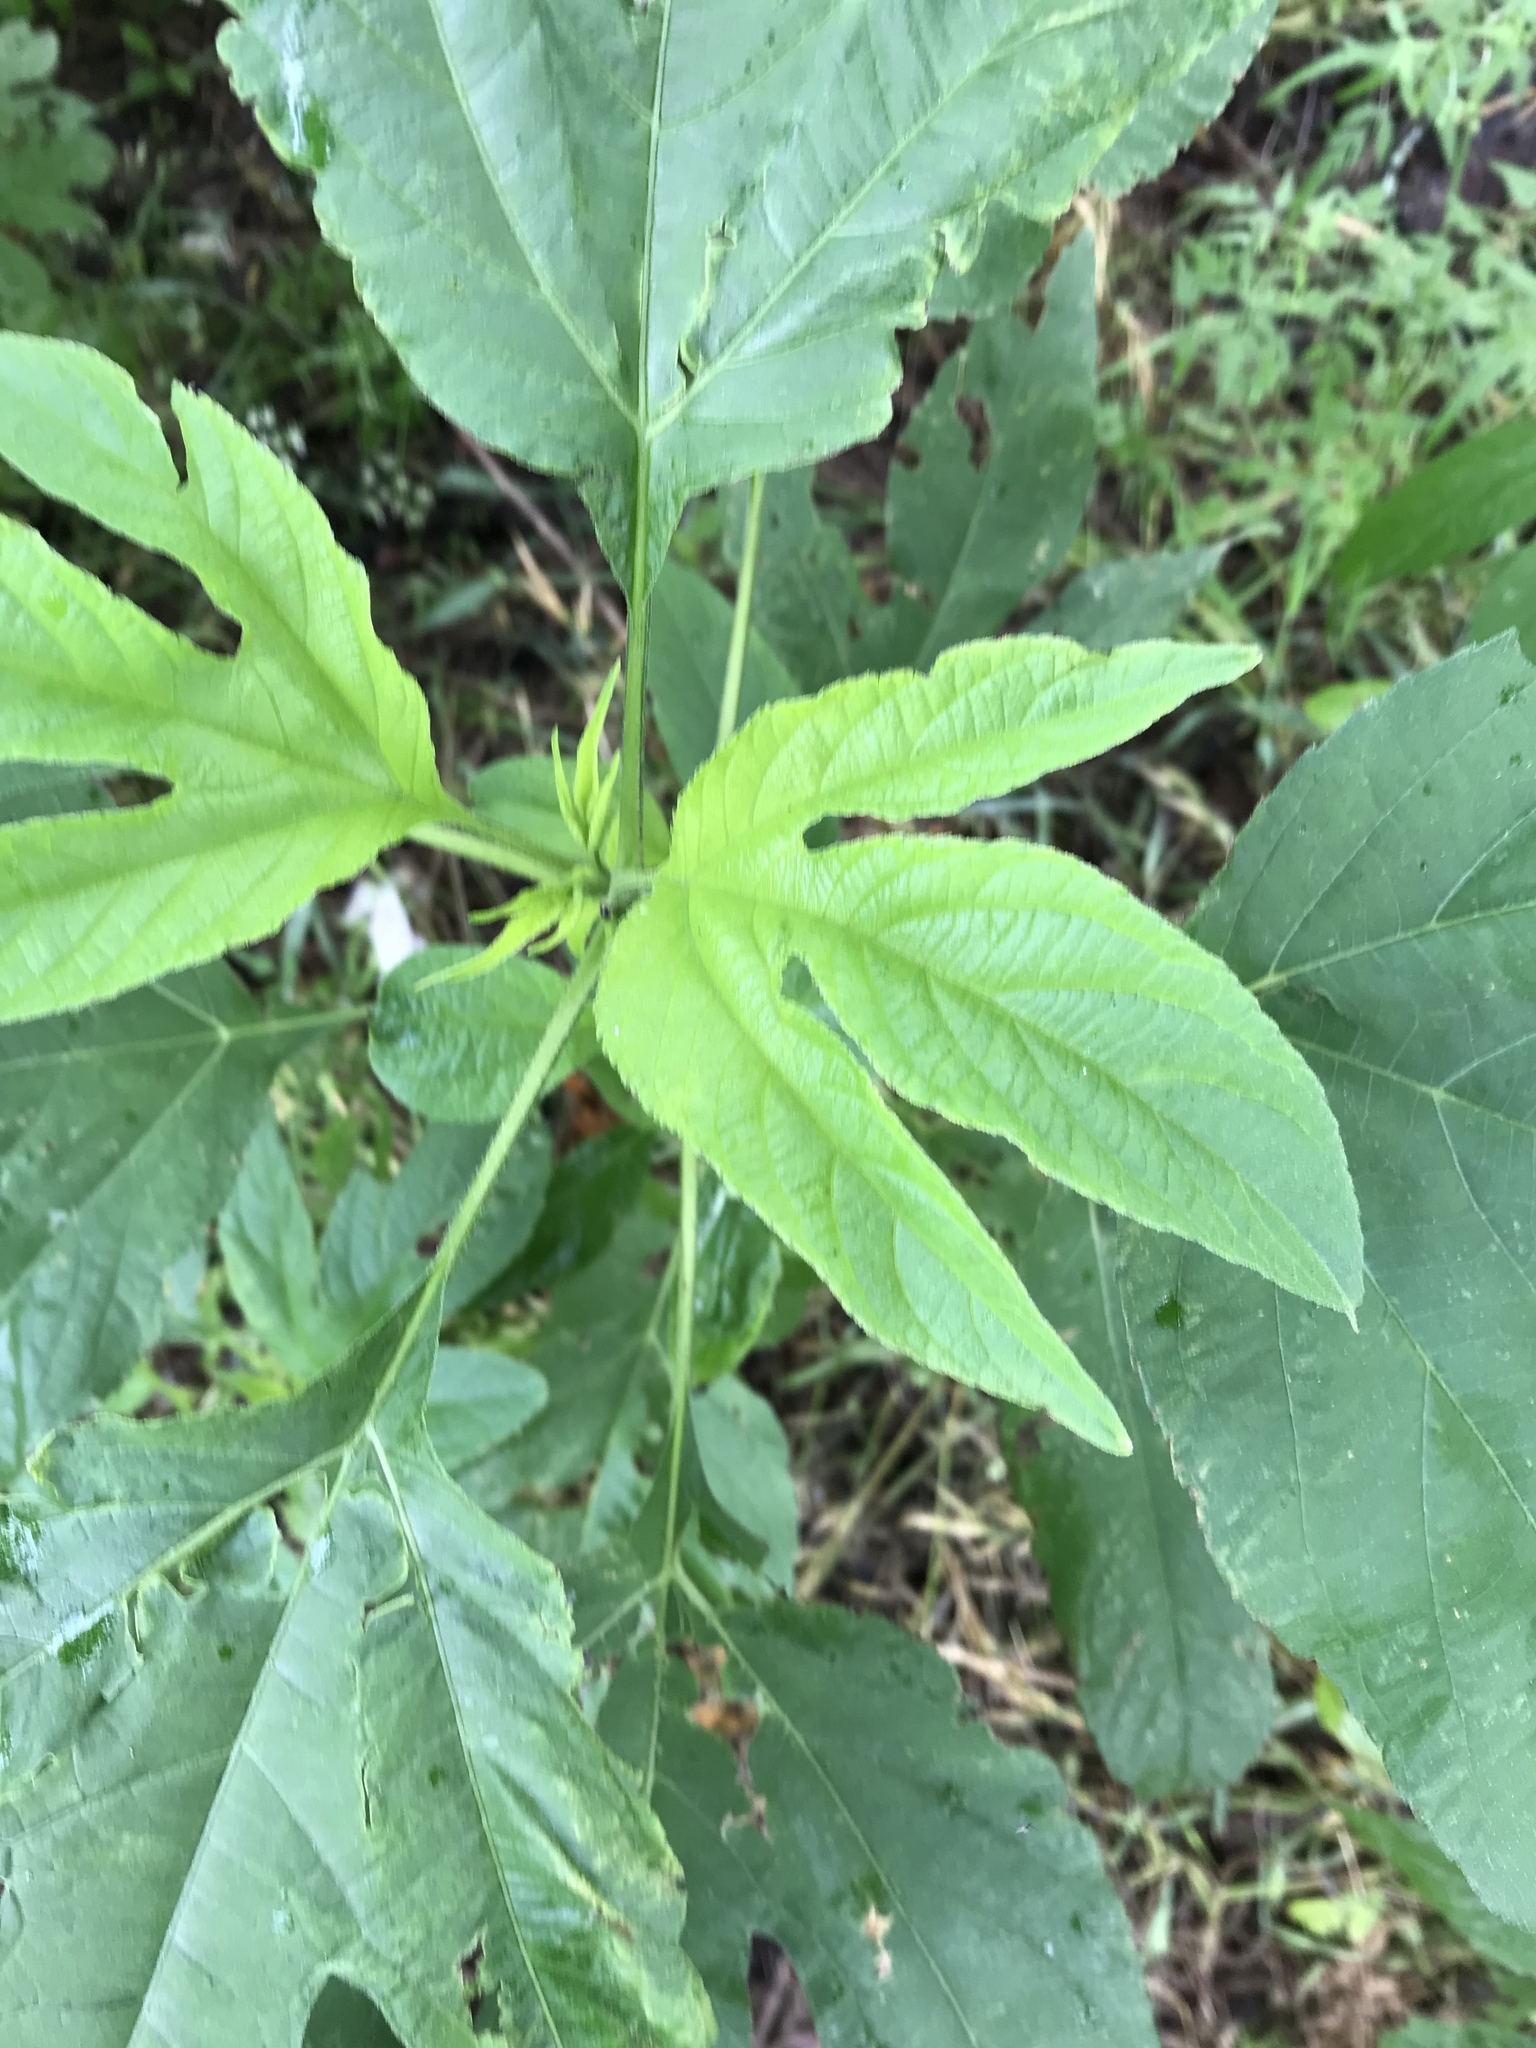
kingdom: Plantae
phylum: Tracheophyta
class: Magnoliopsida
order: Asterales
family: Asteraceae
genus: Ambrosia
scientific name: Ambrosia trifida
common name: Giant ragweed
